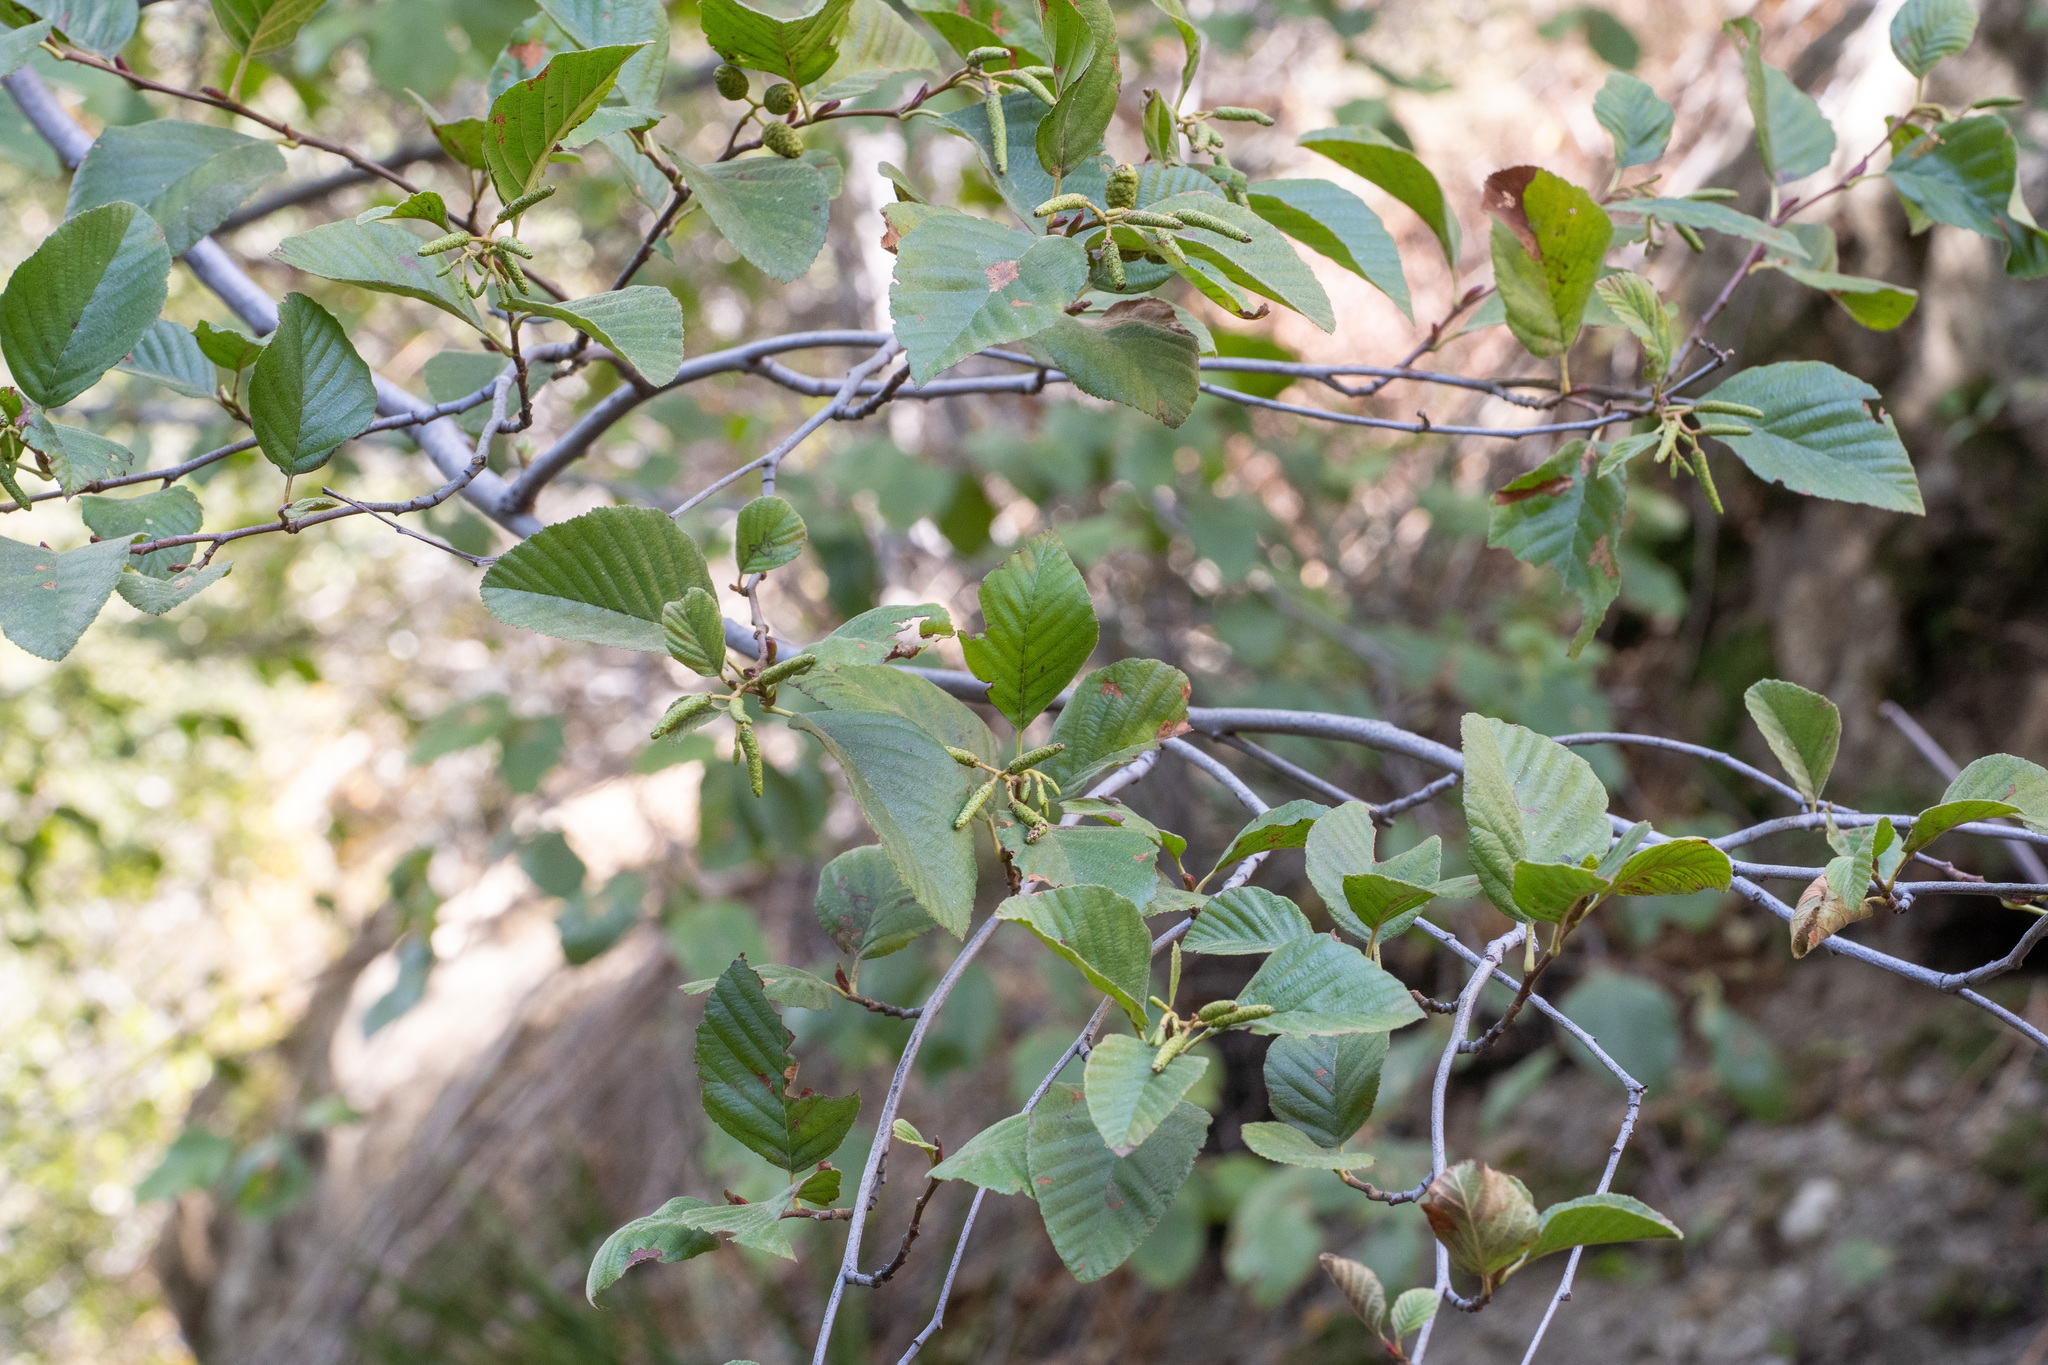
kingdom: Plantae
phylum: Tracheophyta
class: Magnoliopsida
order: Fagales
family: Betulaceae
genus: Alnus
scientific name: Alnus rhombifolia
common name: California alder
